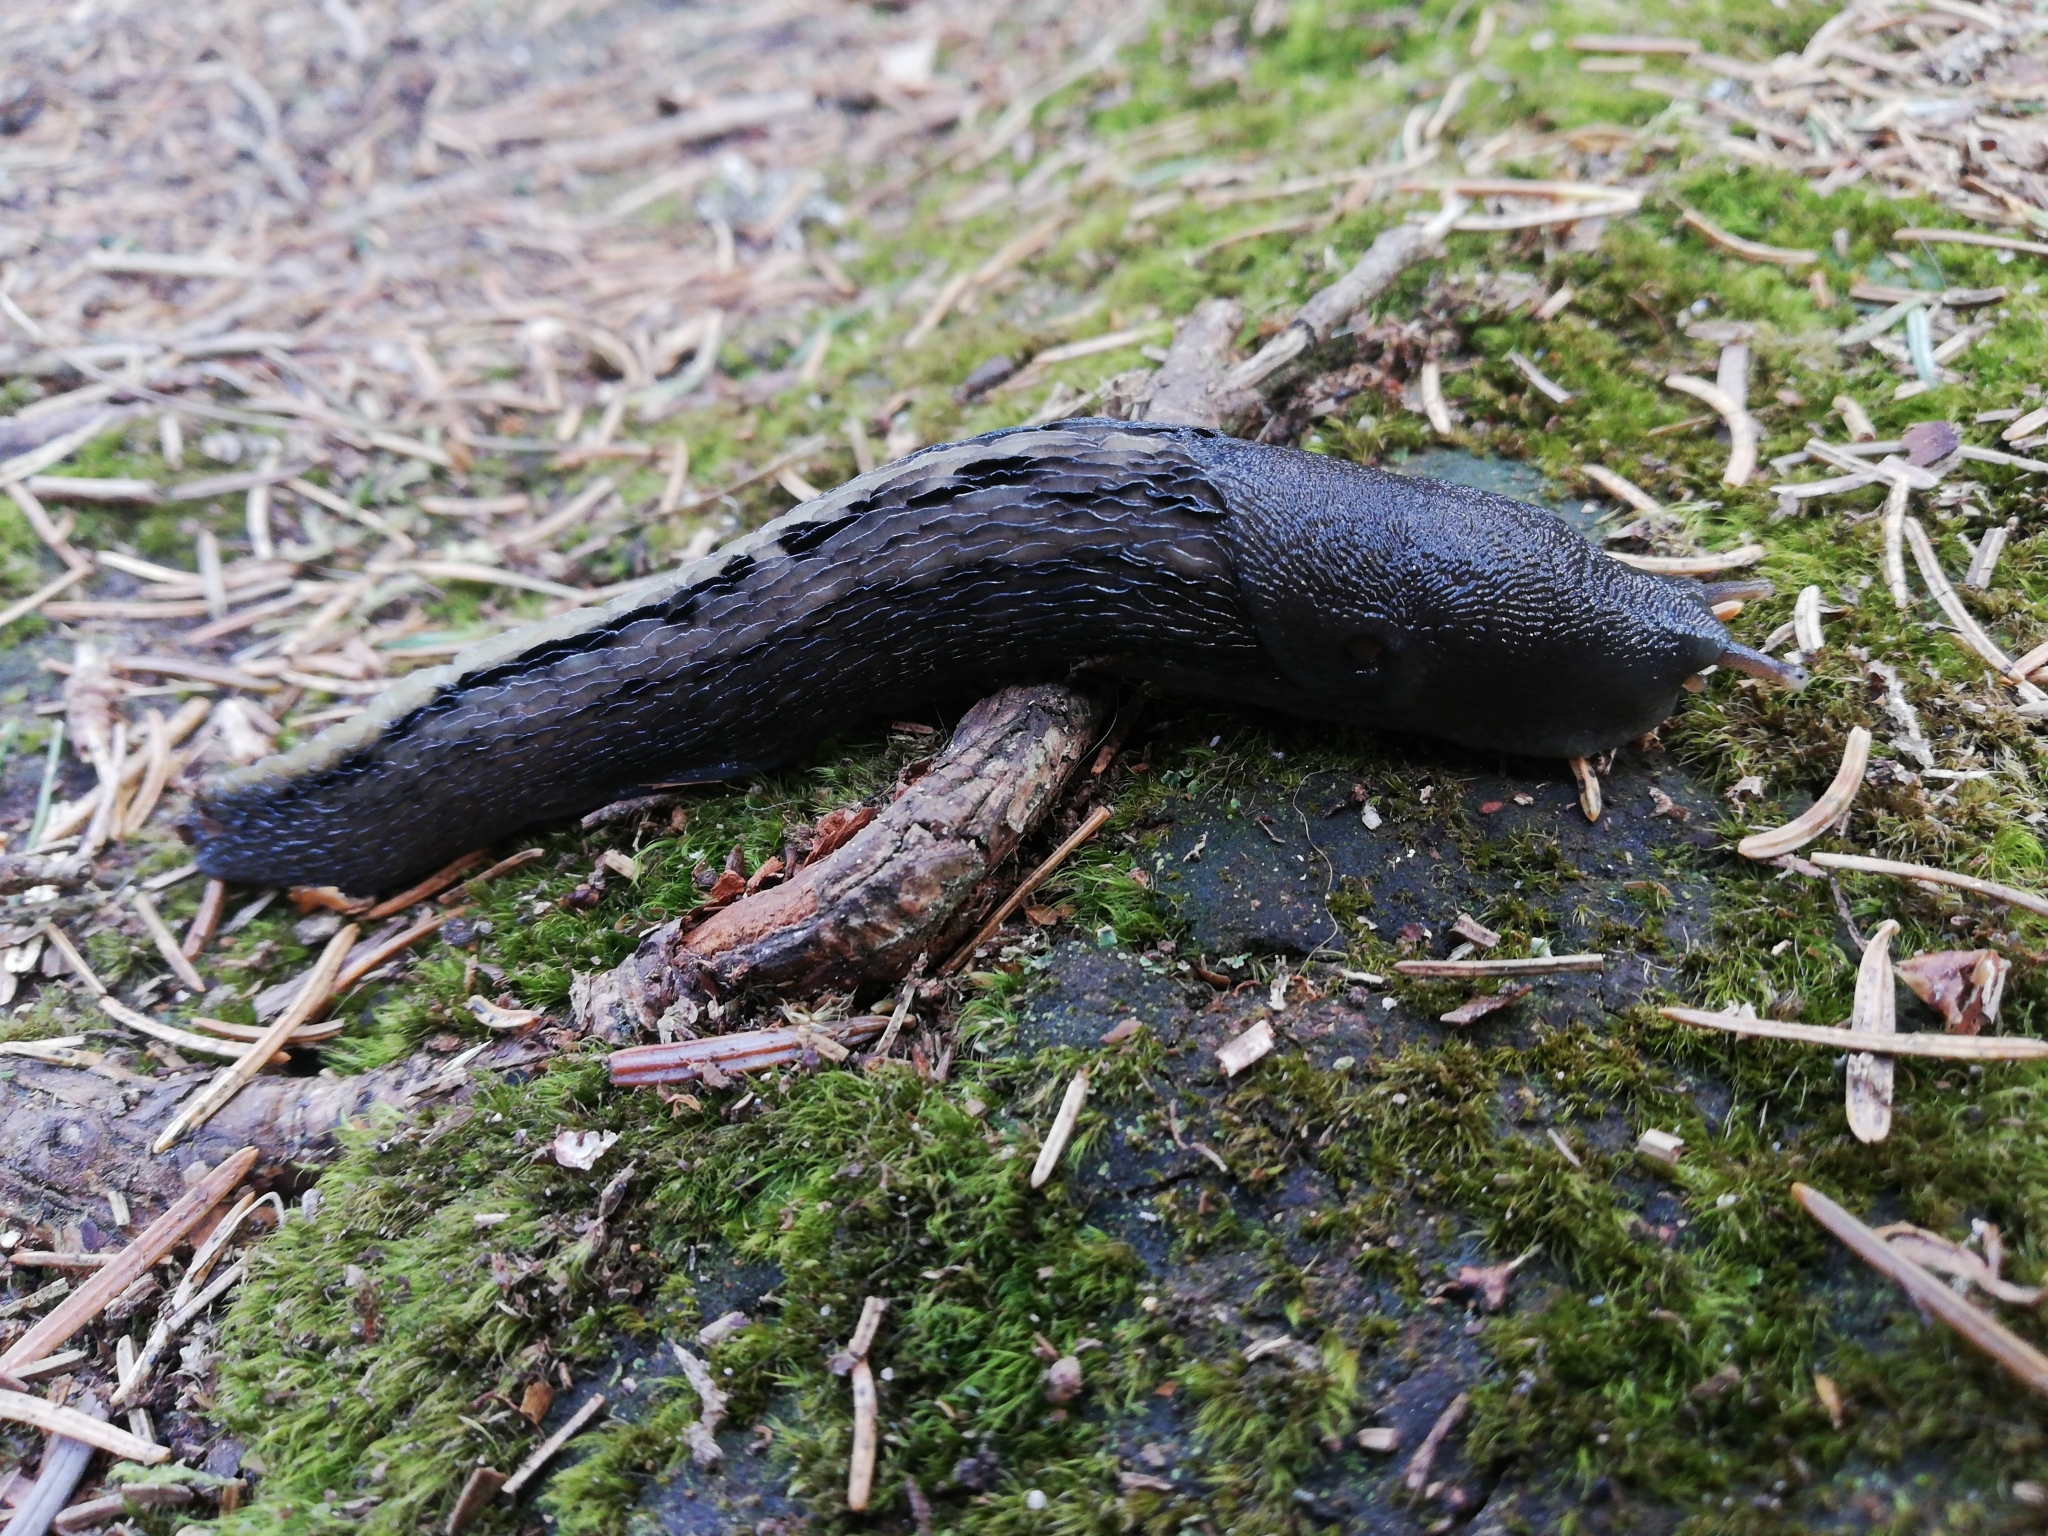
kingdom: Animalia
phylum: Mollusca
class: Gastropoda
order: Stylommatophora
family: Limacidae
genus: Limax
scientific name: Limax cinereoniger
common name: Ash-black slug
